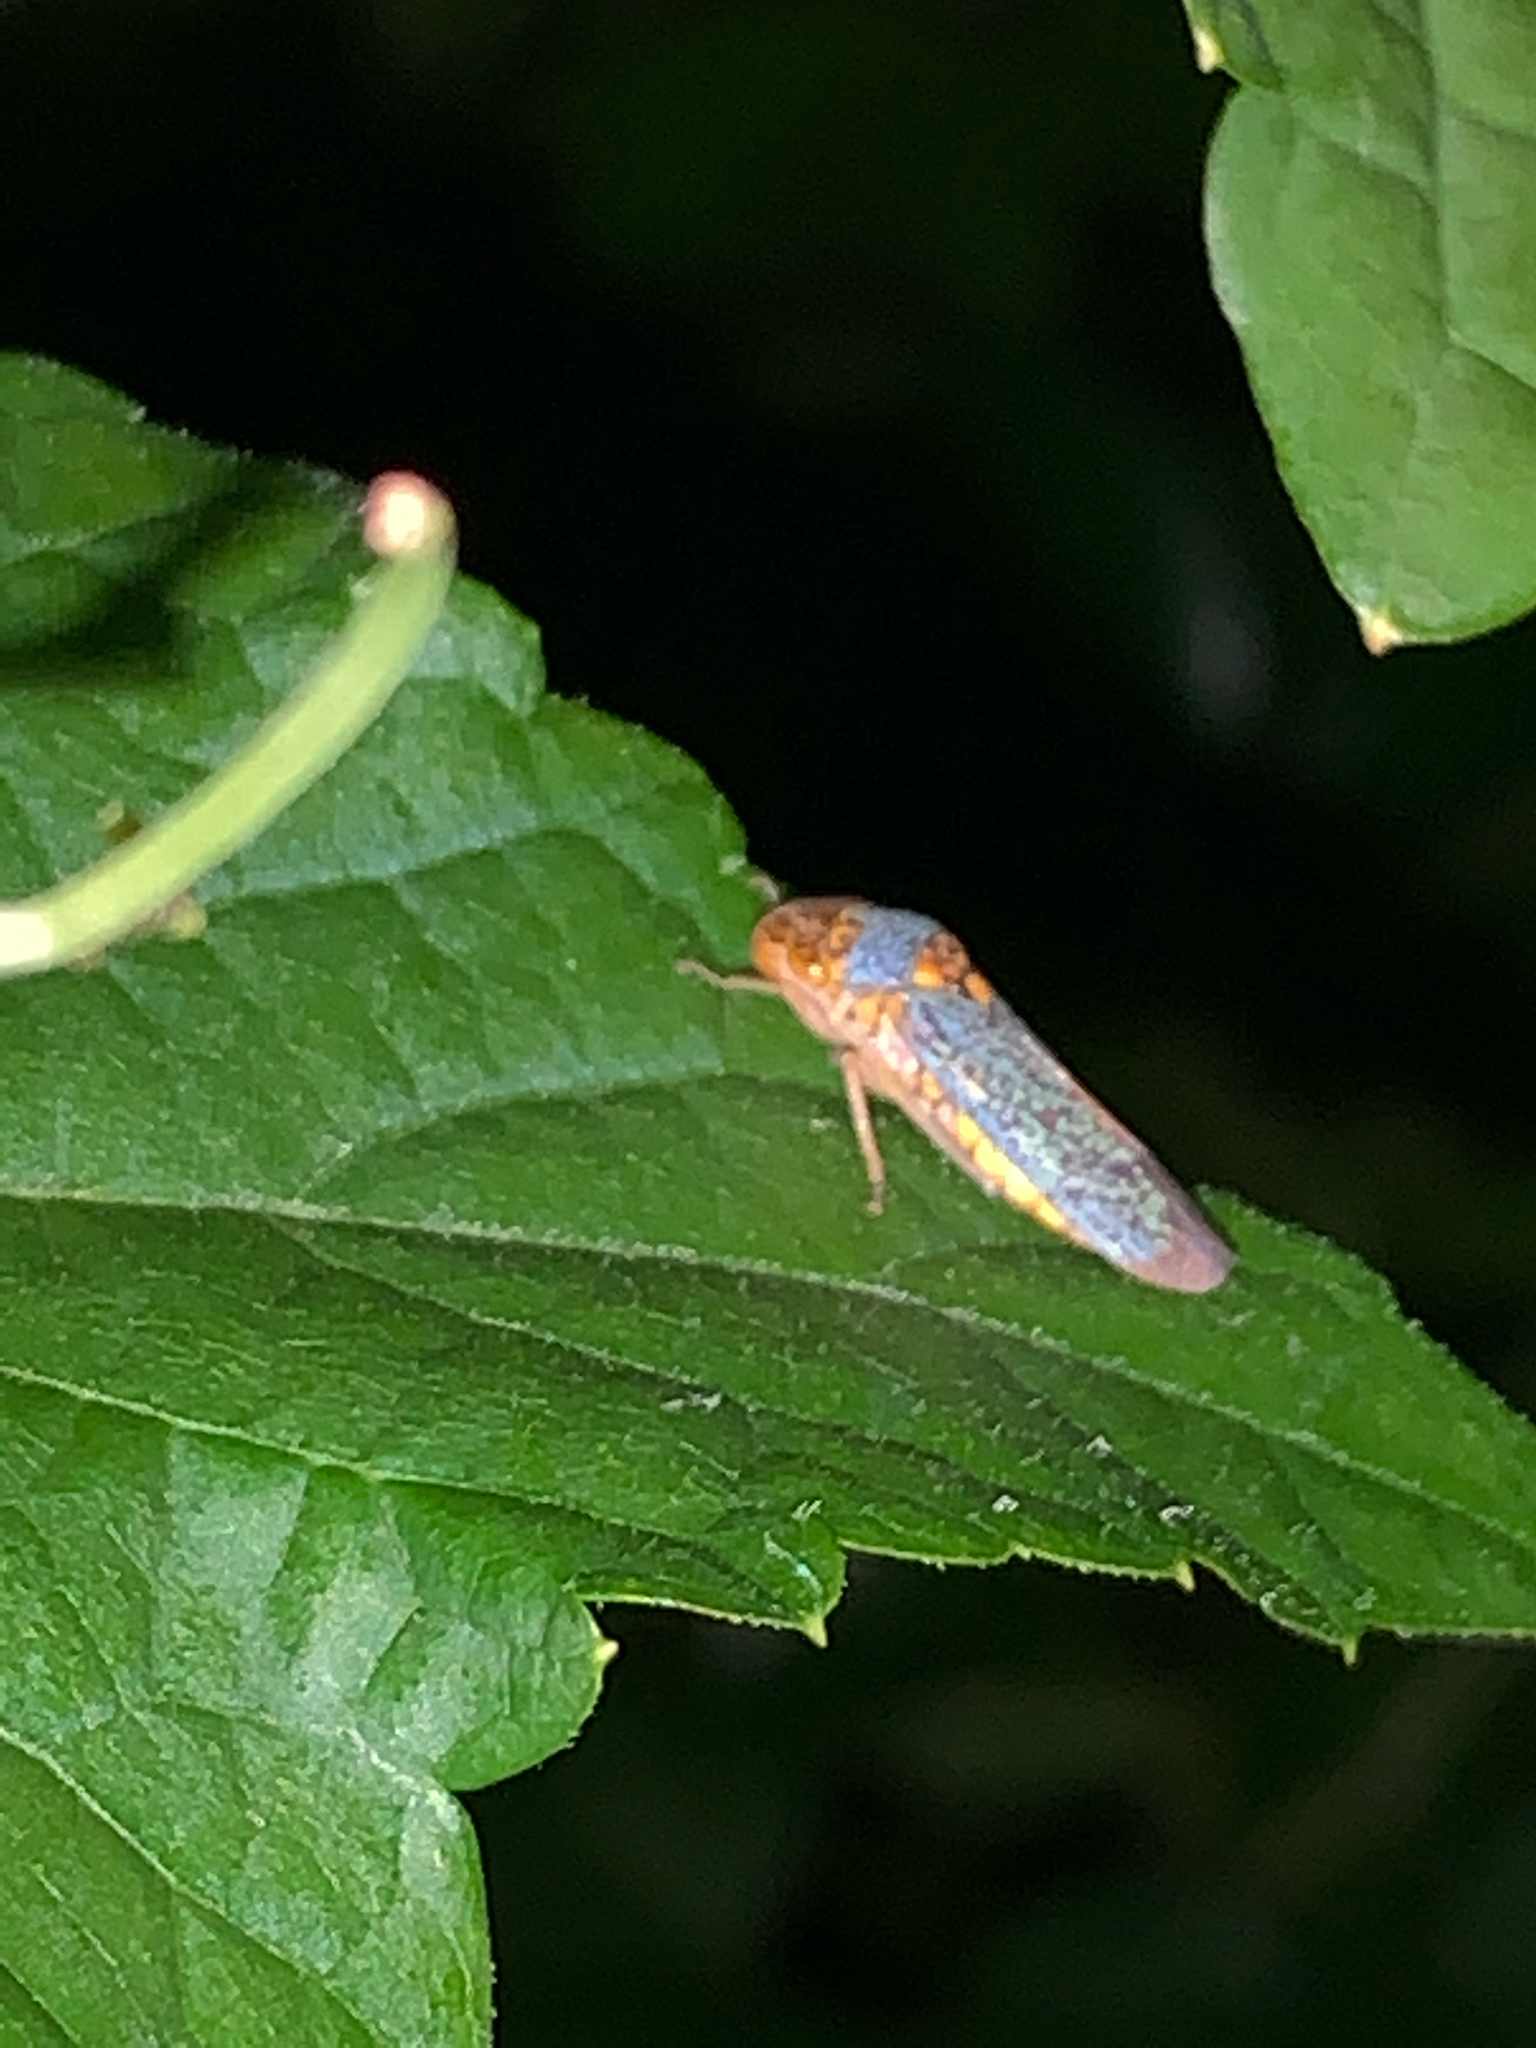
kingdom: Animalia
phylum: Arthropoda
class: Insecta
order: Hemiptera
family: Cicadellidae
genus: Oncometopia
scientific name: Oncometopia orbona
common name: Broad-headed sharpshooter
